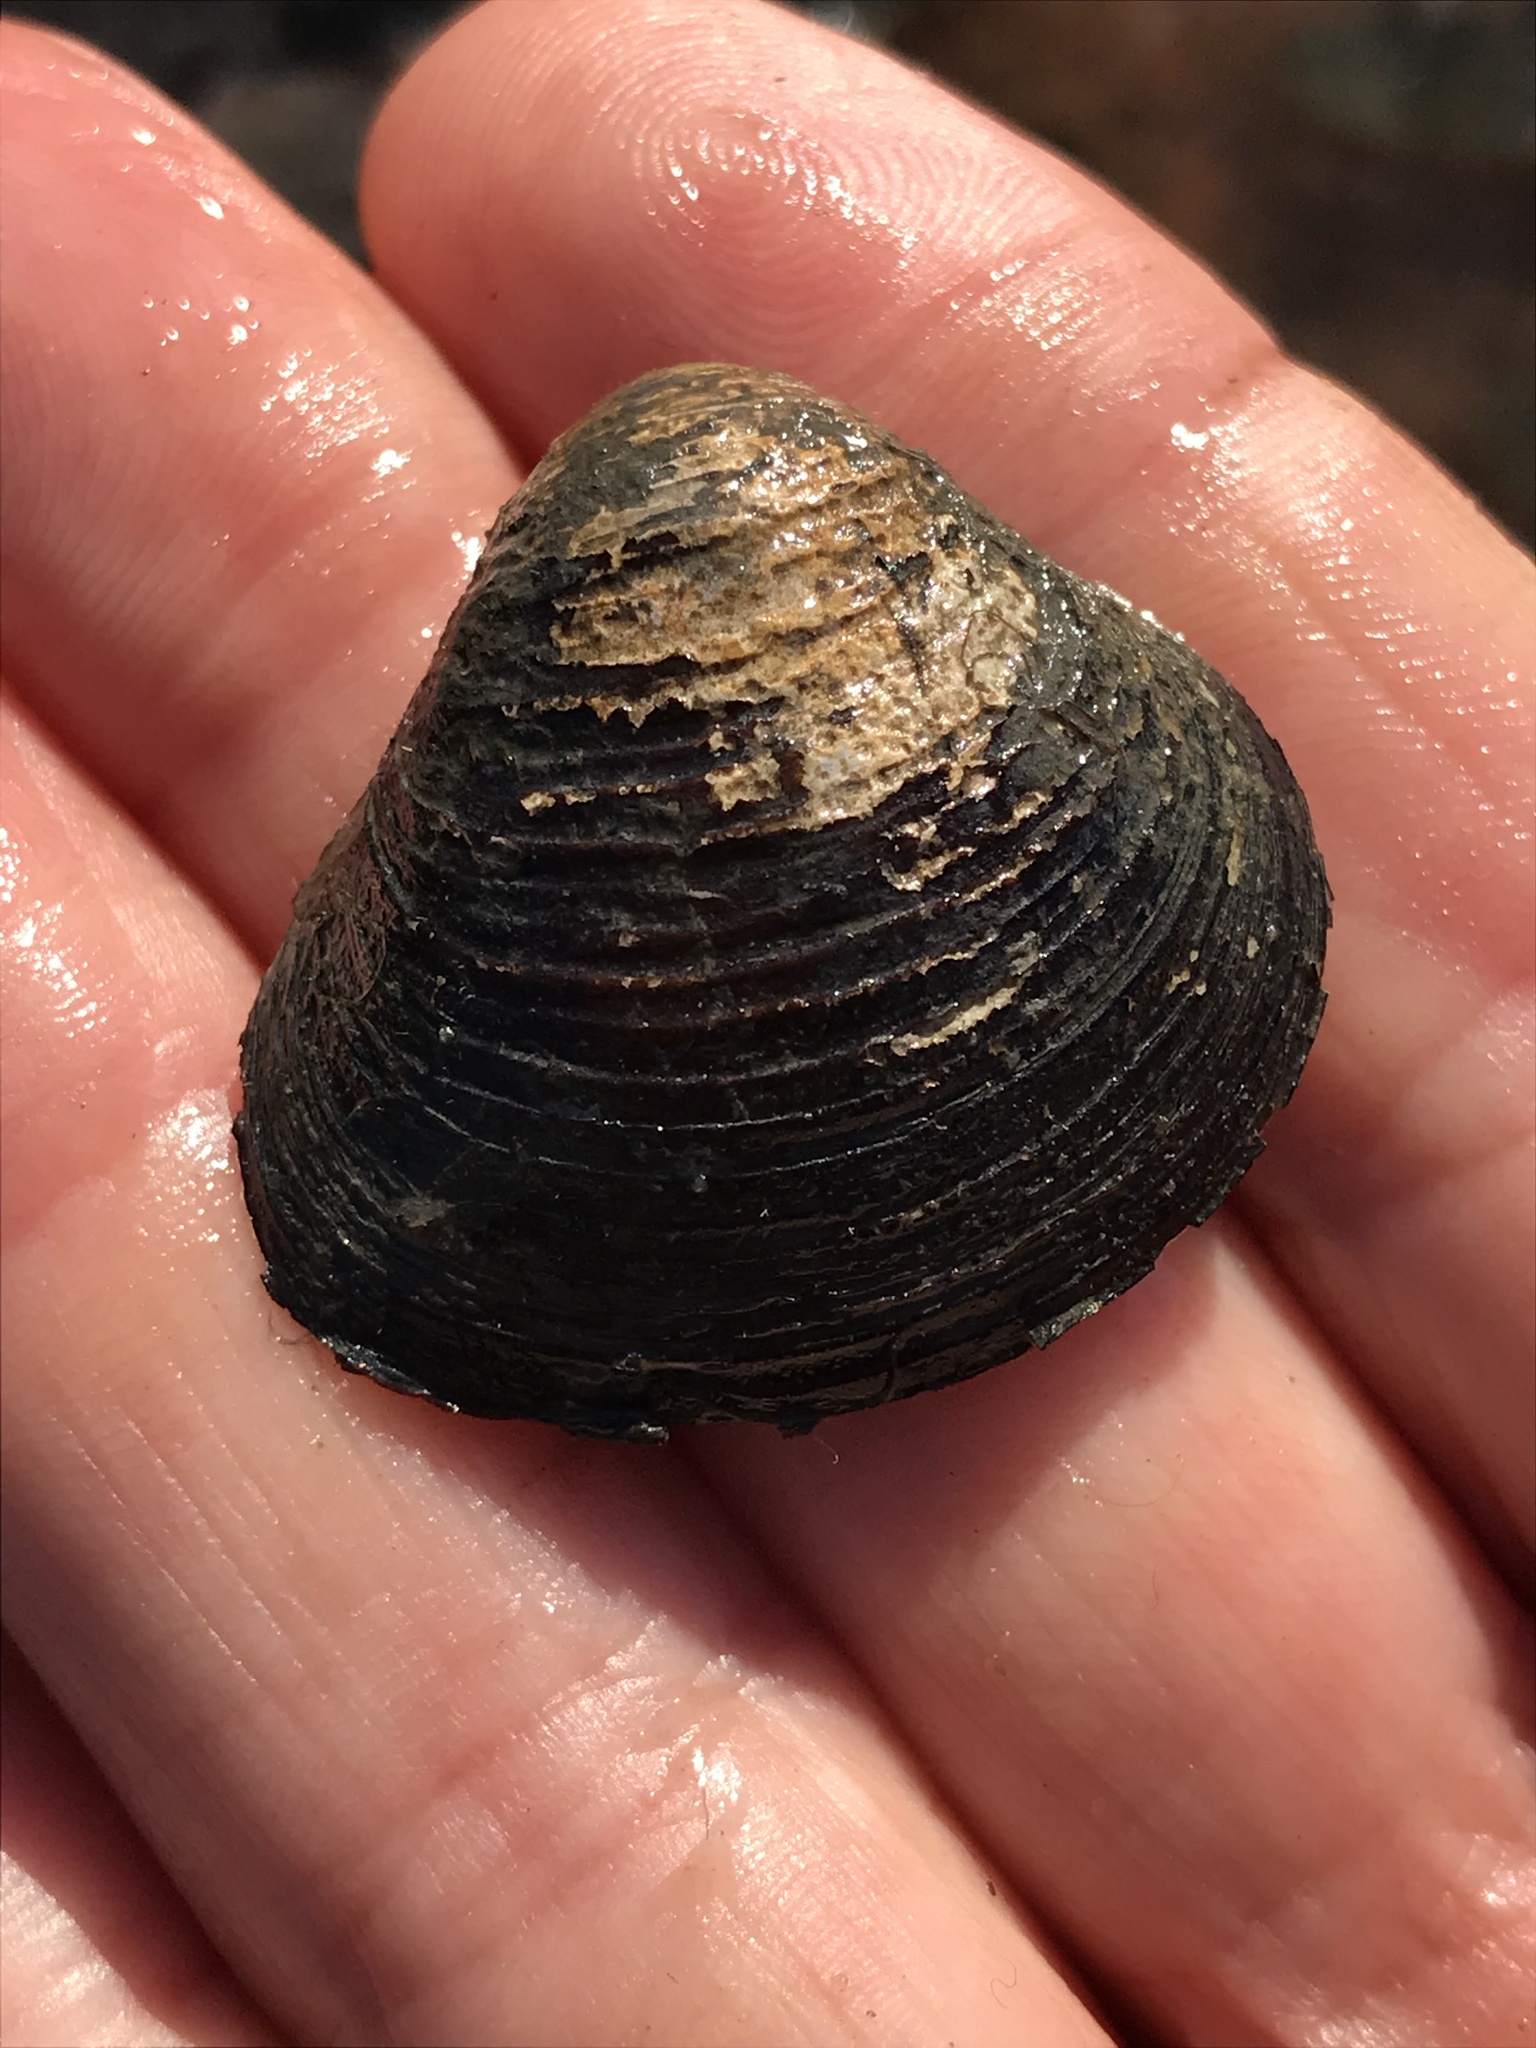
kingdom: Animalia
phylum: Mollusca
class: Bivalvia
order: Venerida
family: Cyrenidae
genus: Corbicula
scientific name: Corbicula fluminea
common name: Asian clam
